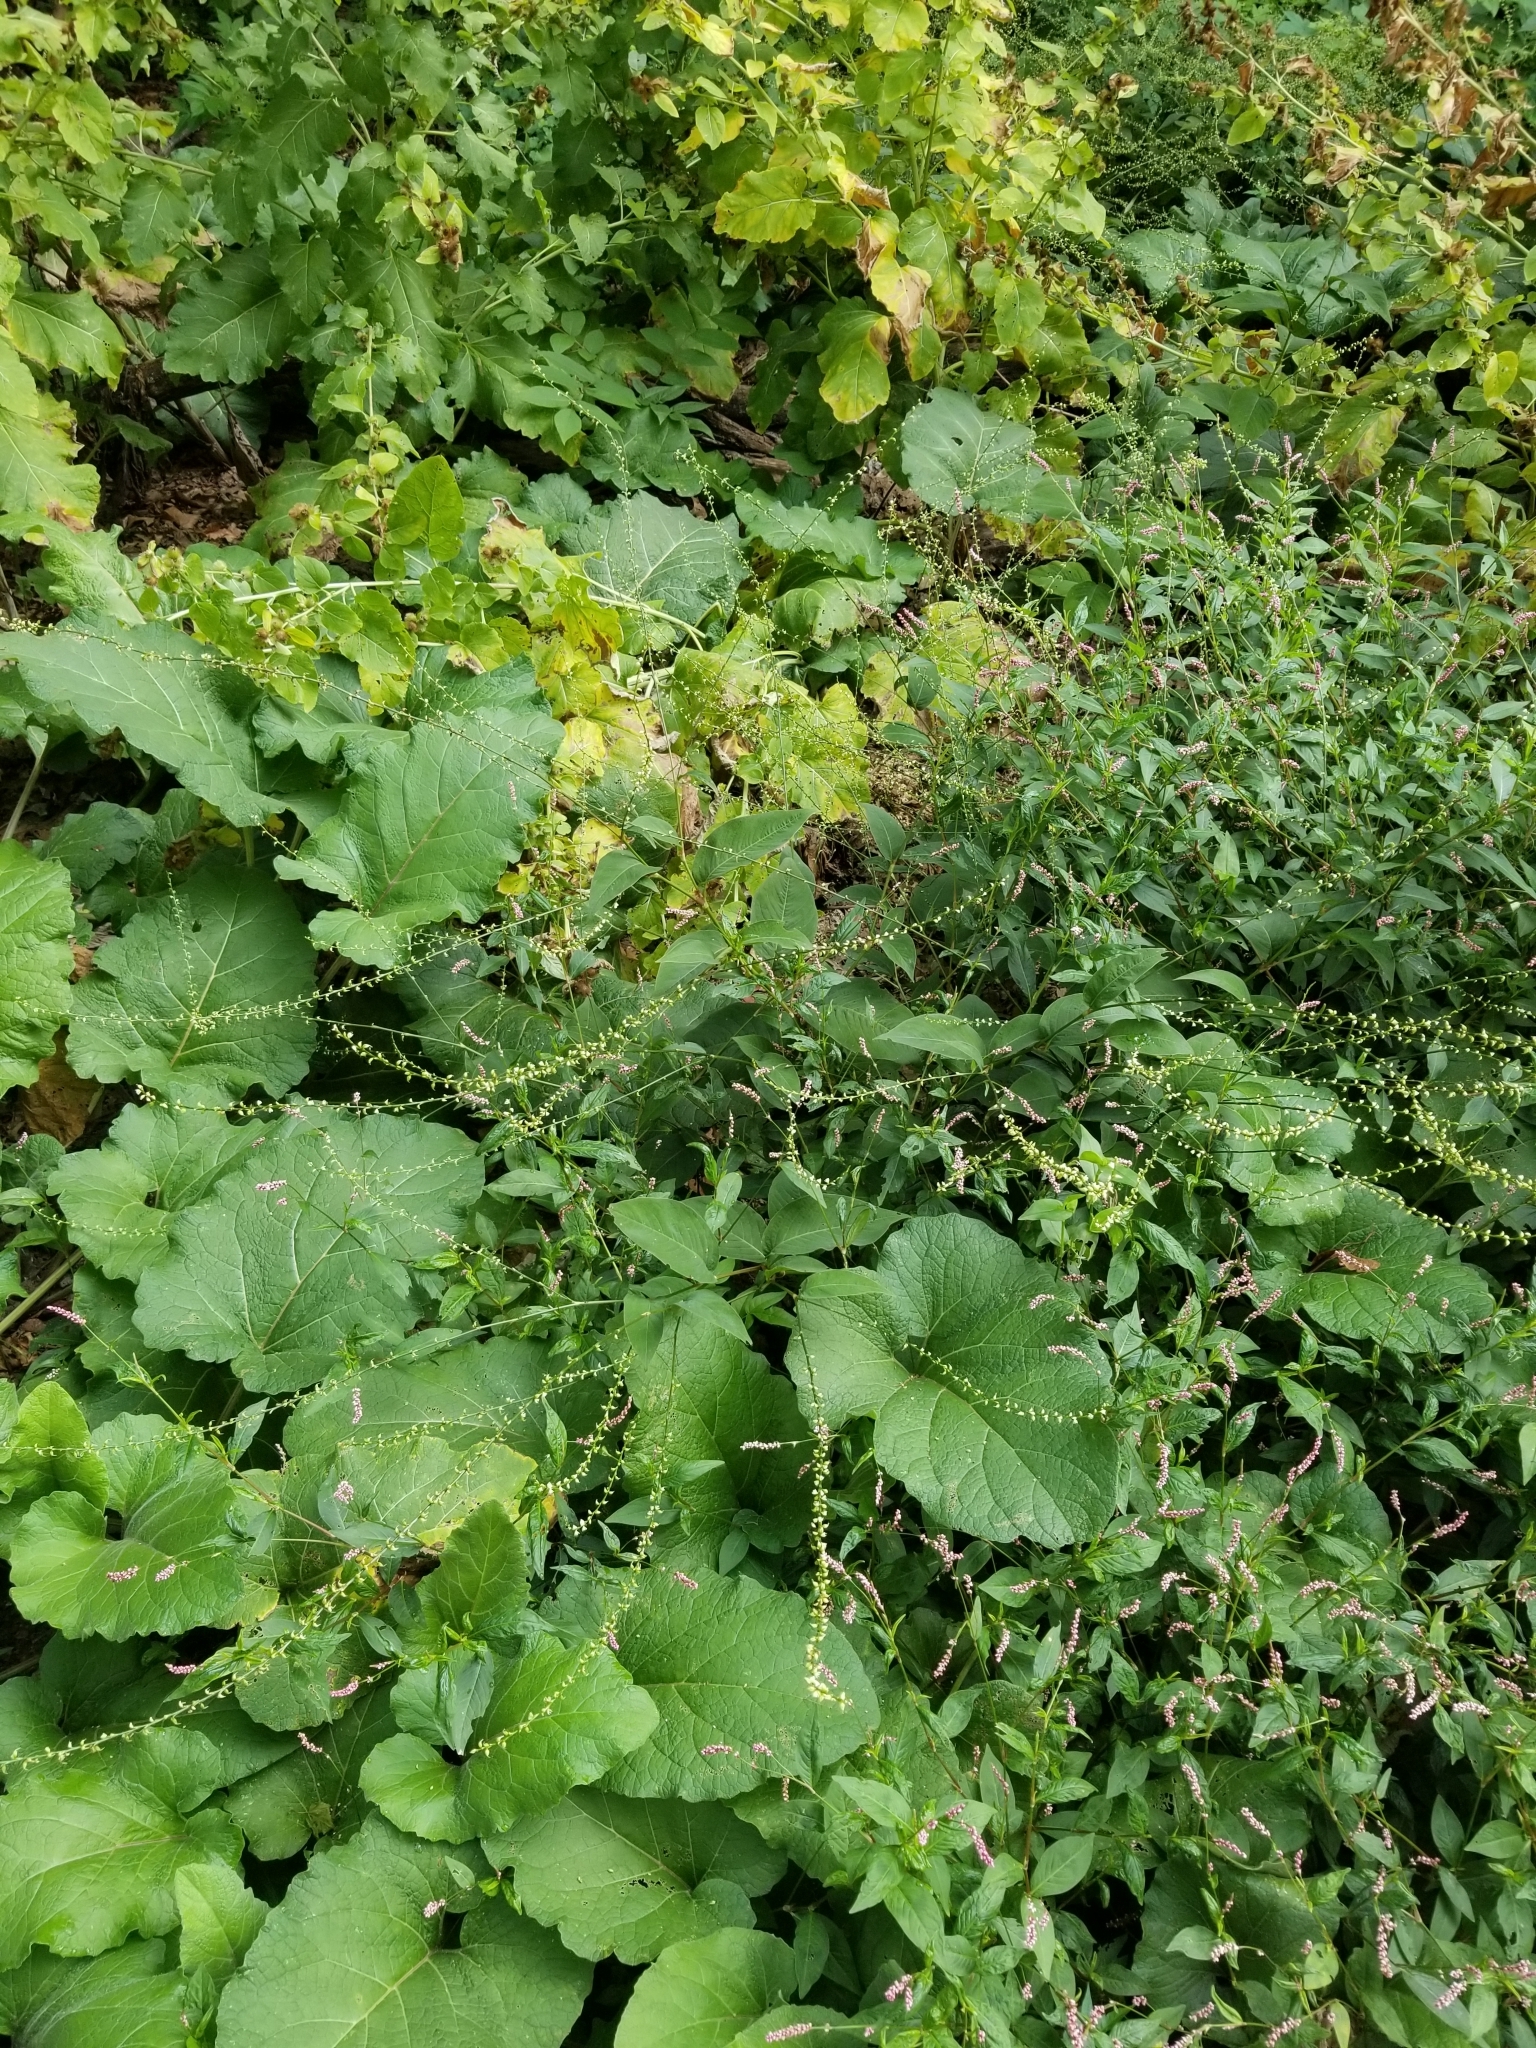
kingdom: Plantae
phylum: Tracheophyta
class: Magnoliopsida
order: Caryophyllales
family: Polygonaceae
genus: Persicaria
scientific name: Persicaria virginiana
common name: Jumpseed
